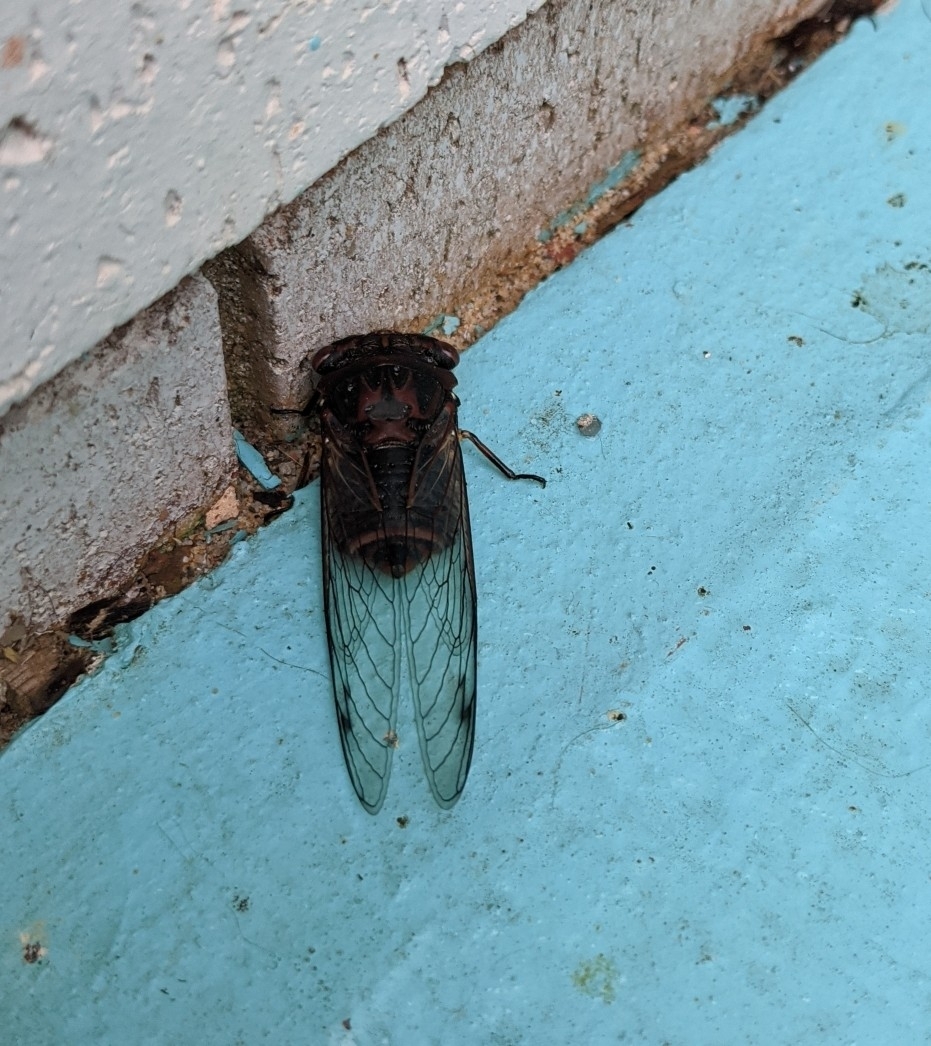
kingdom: Animalia
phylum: Arthropoda
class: Insecta
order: Hemiptera
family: Cicadidae
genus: Psaltoda
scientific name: Psaltoda plaga
